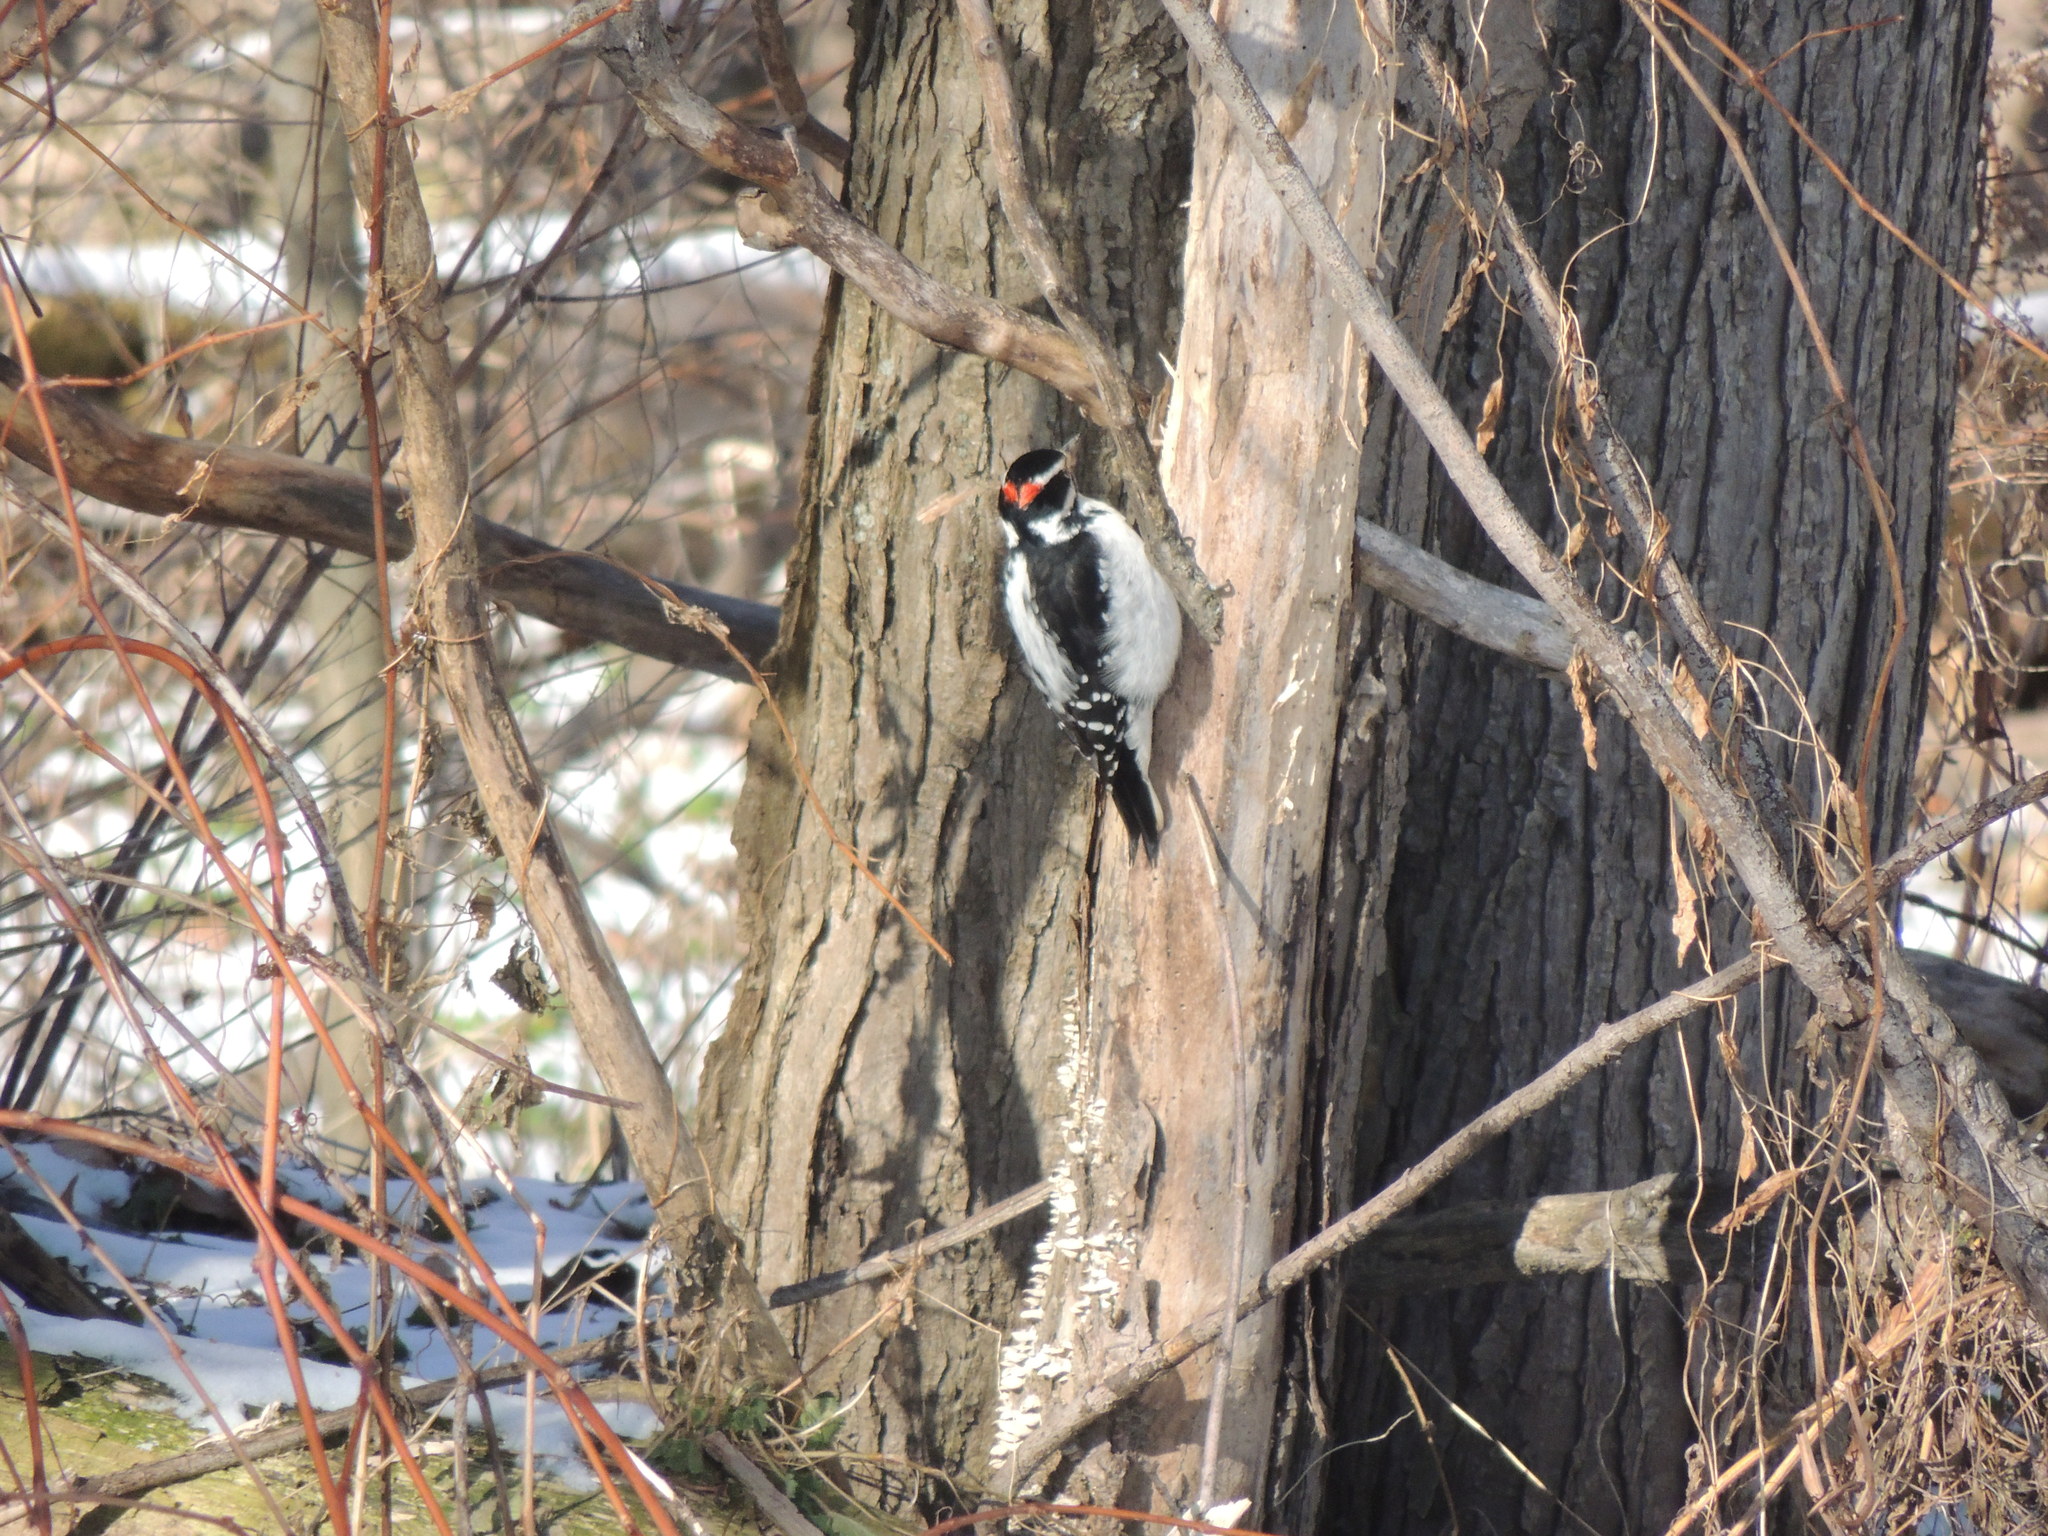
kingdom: Animalia
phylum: Chordata
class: Aves
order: Piciformes
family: Picidae
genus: Leuconotopicus
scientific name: Leuconotopicus villosus
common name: Hairy woodpecker
